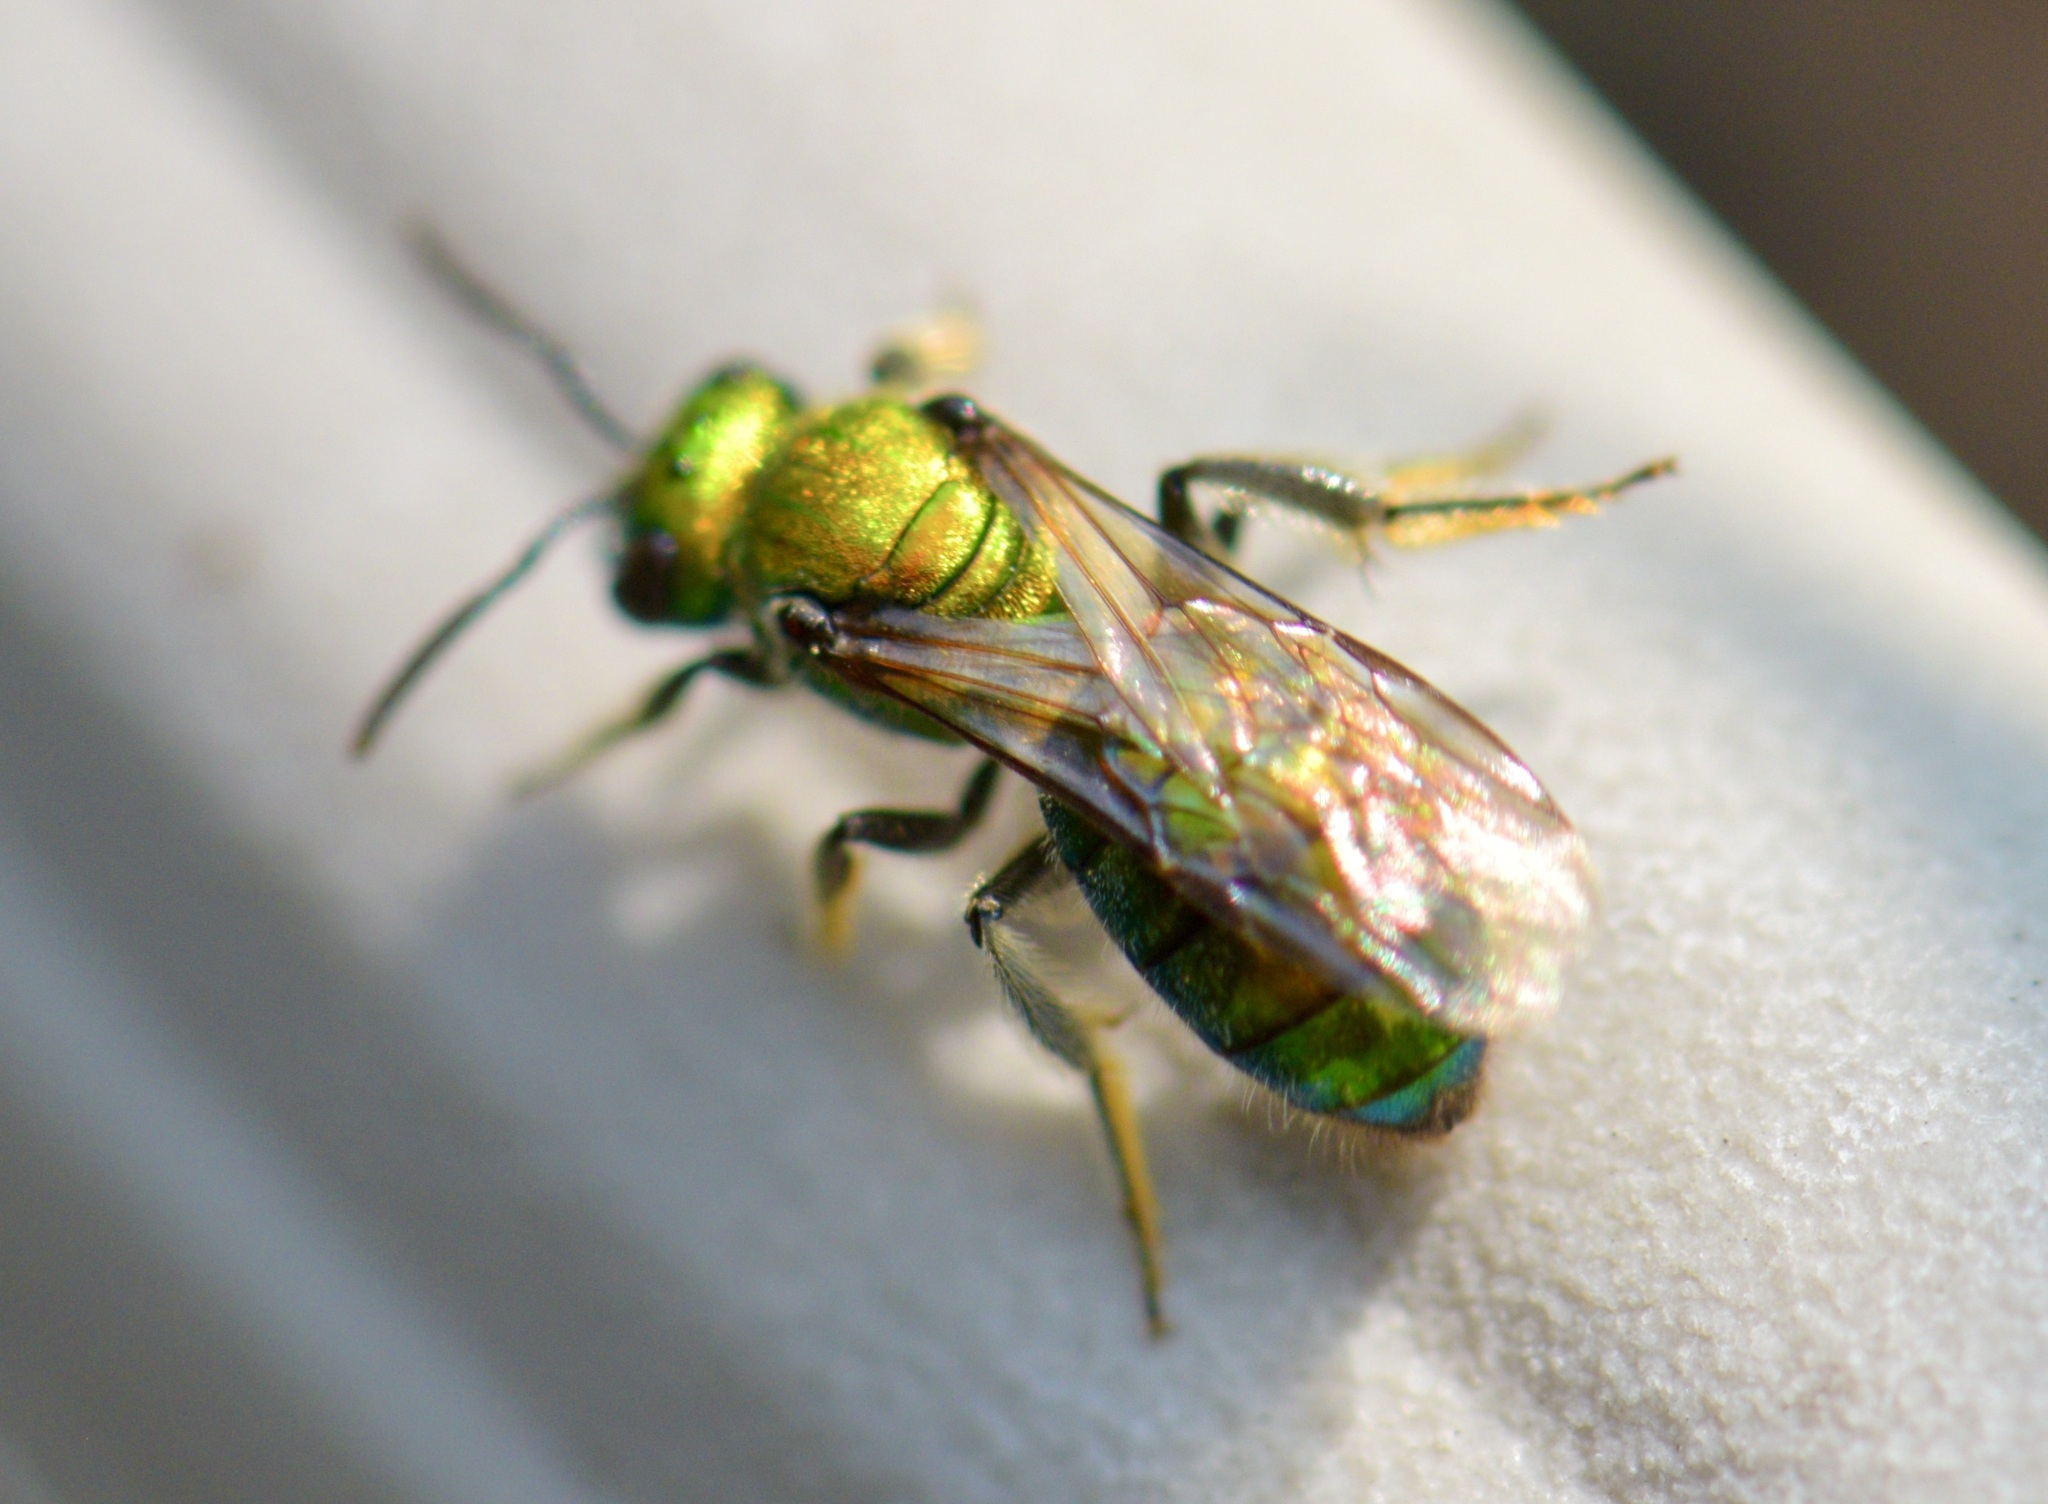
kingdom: Animalia
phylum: Arthropoda
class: Insecta
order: Hymenoptera
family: Halictidae
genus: Augochlora
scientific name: Augochlora pura
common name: Pure green sweat bee
